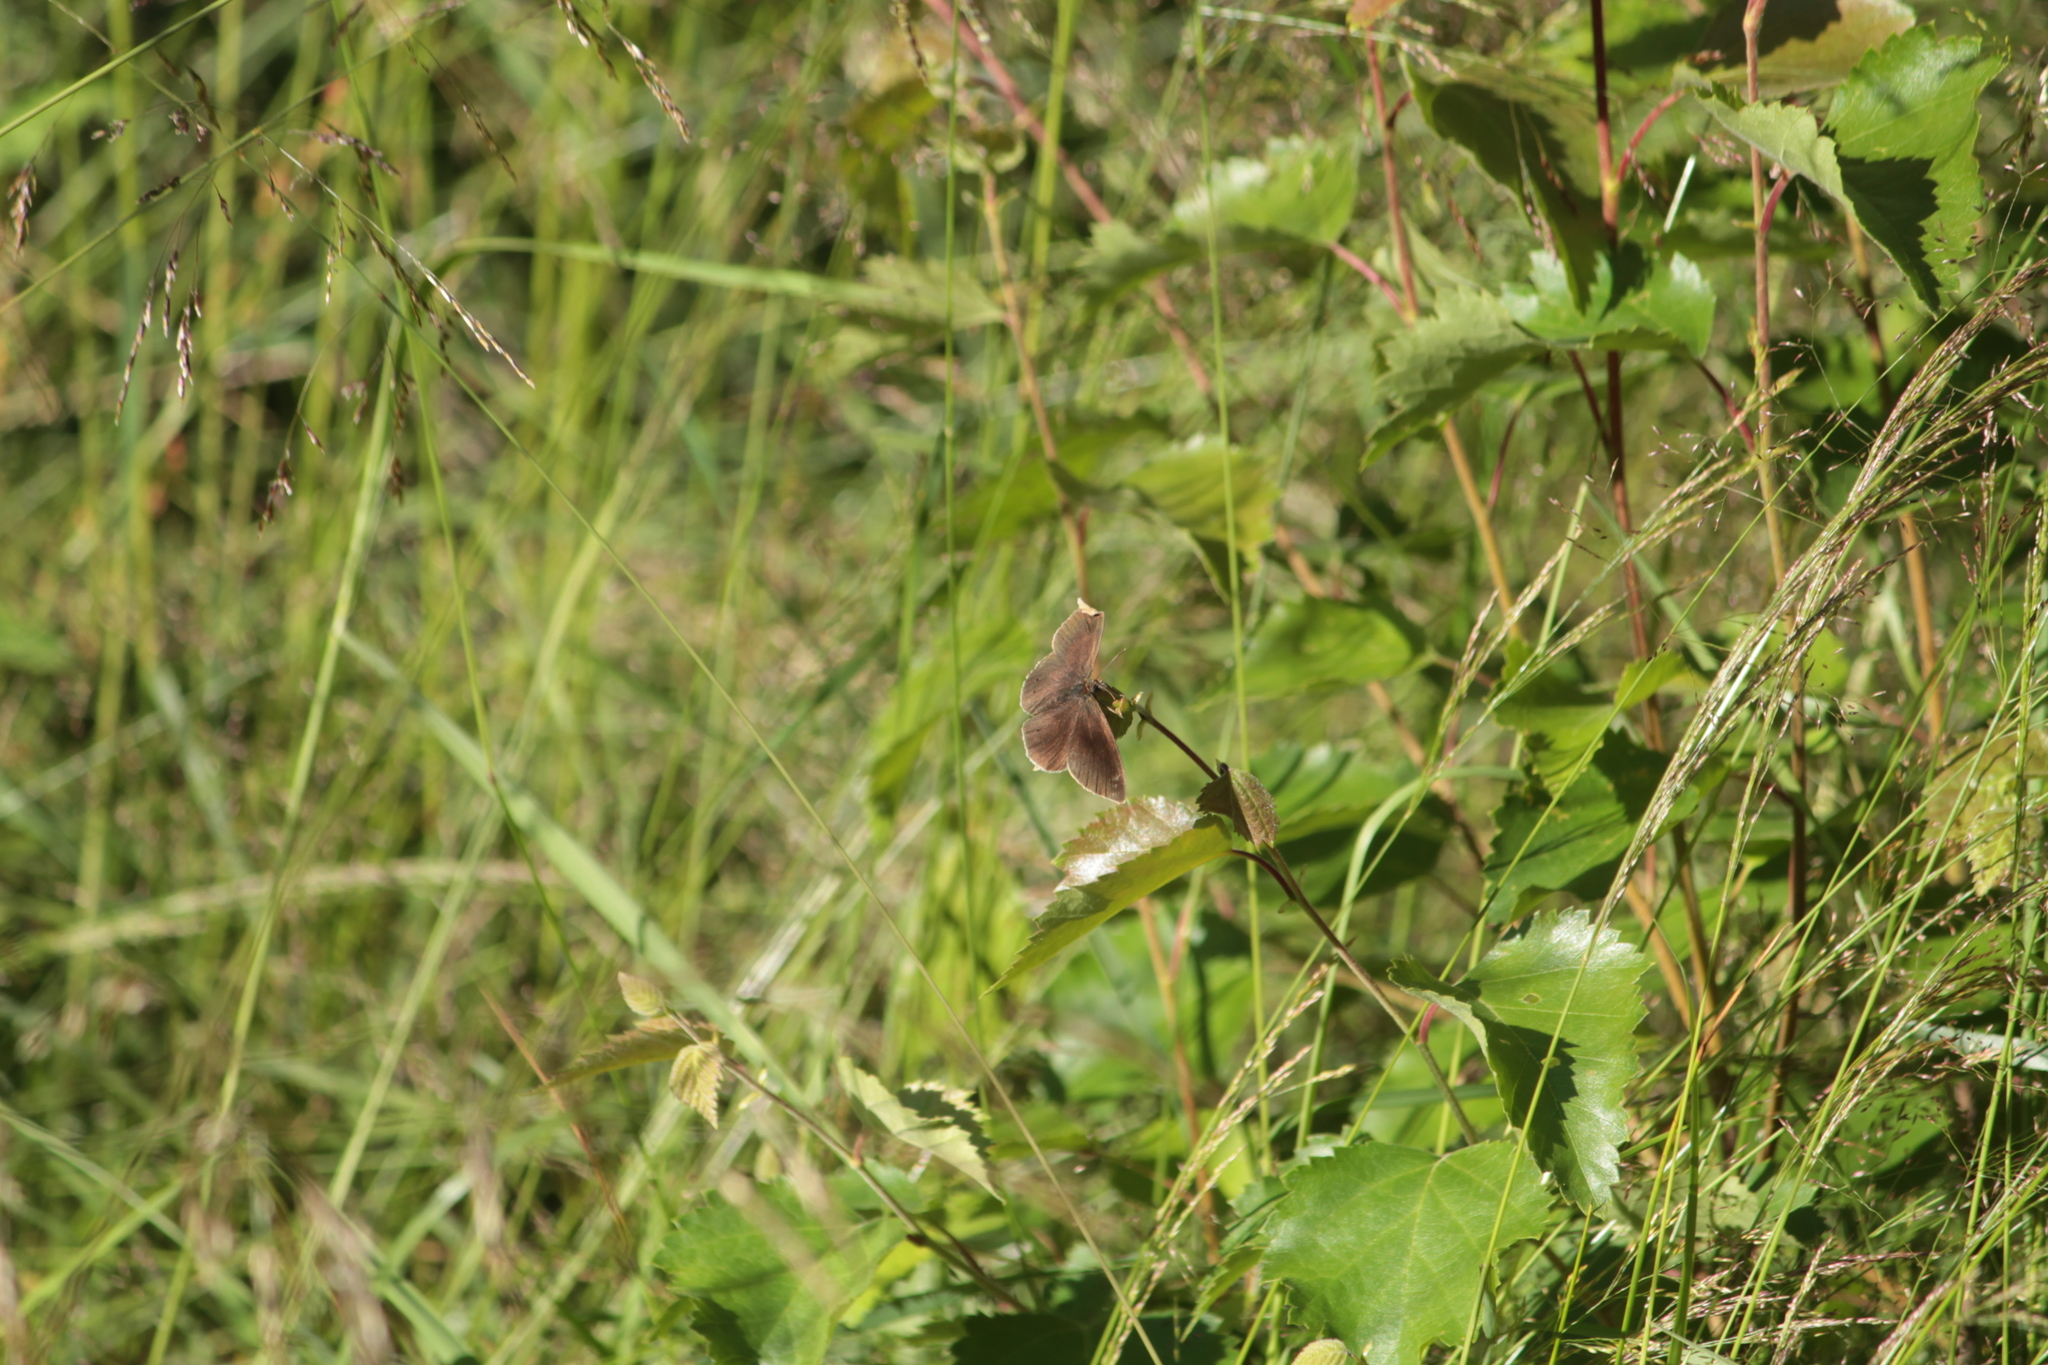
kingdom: Animalia
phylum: Arthropoda
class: Insecta
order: Lepidoptera
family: Nymphalidae
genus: Aphantopus
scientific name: Aphantopus hyperantus
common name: Ringlet
